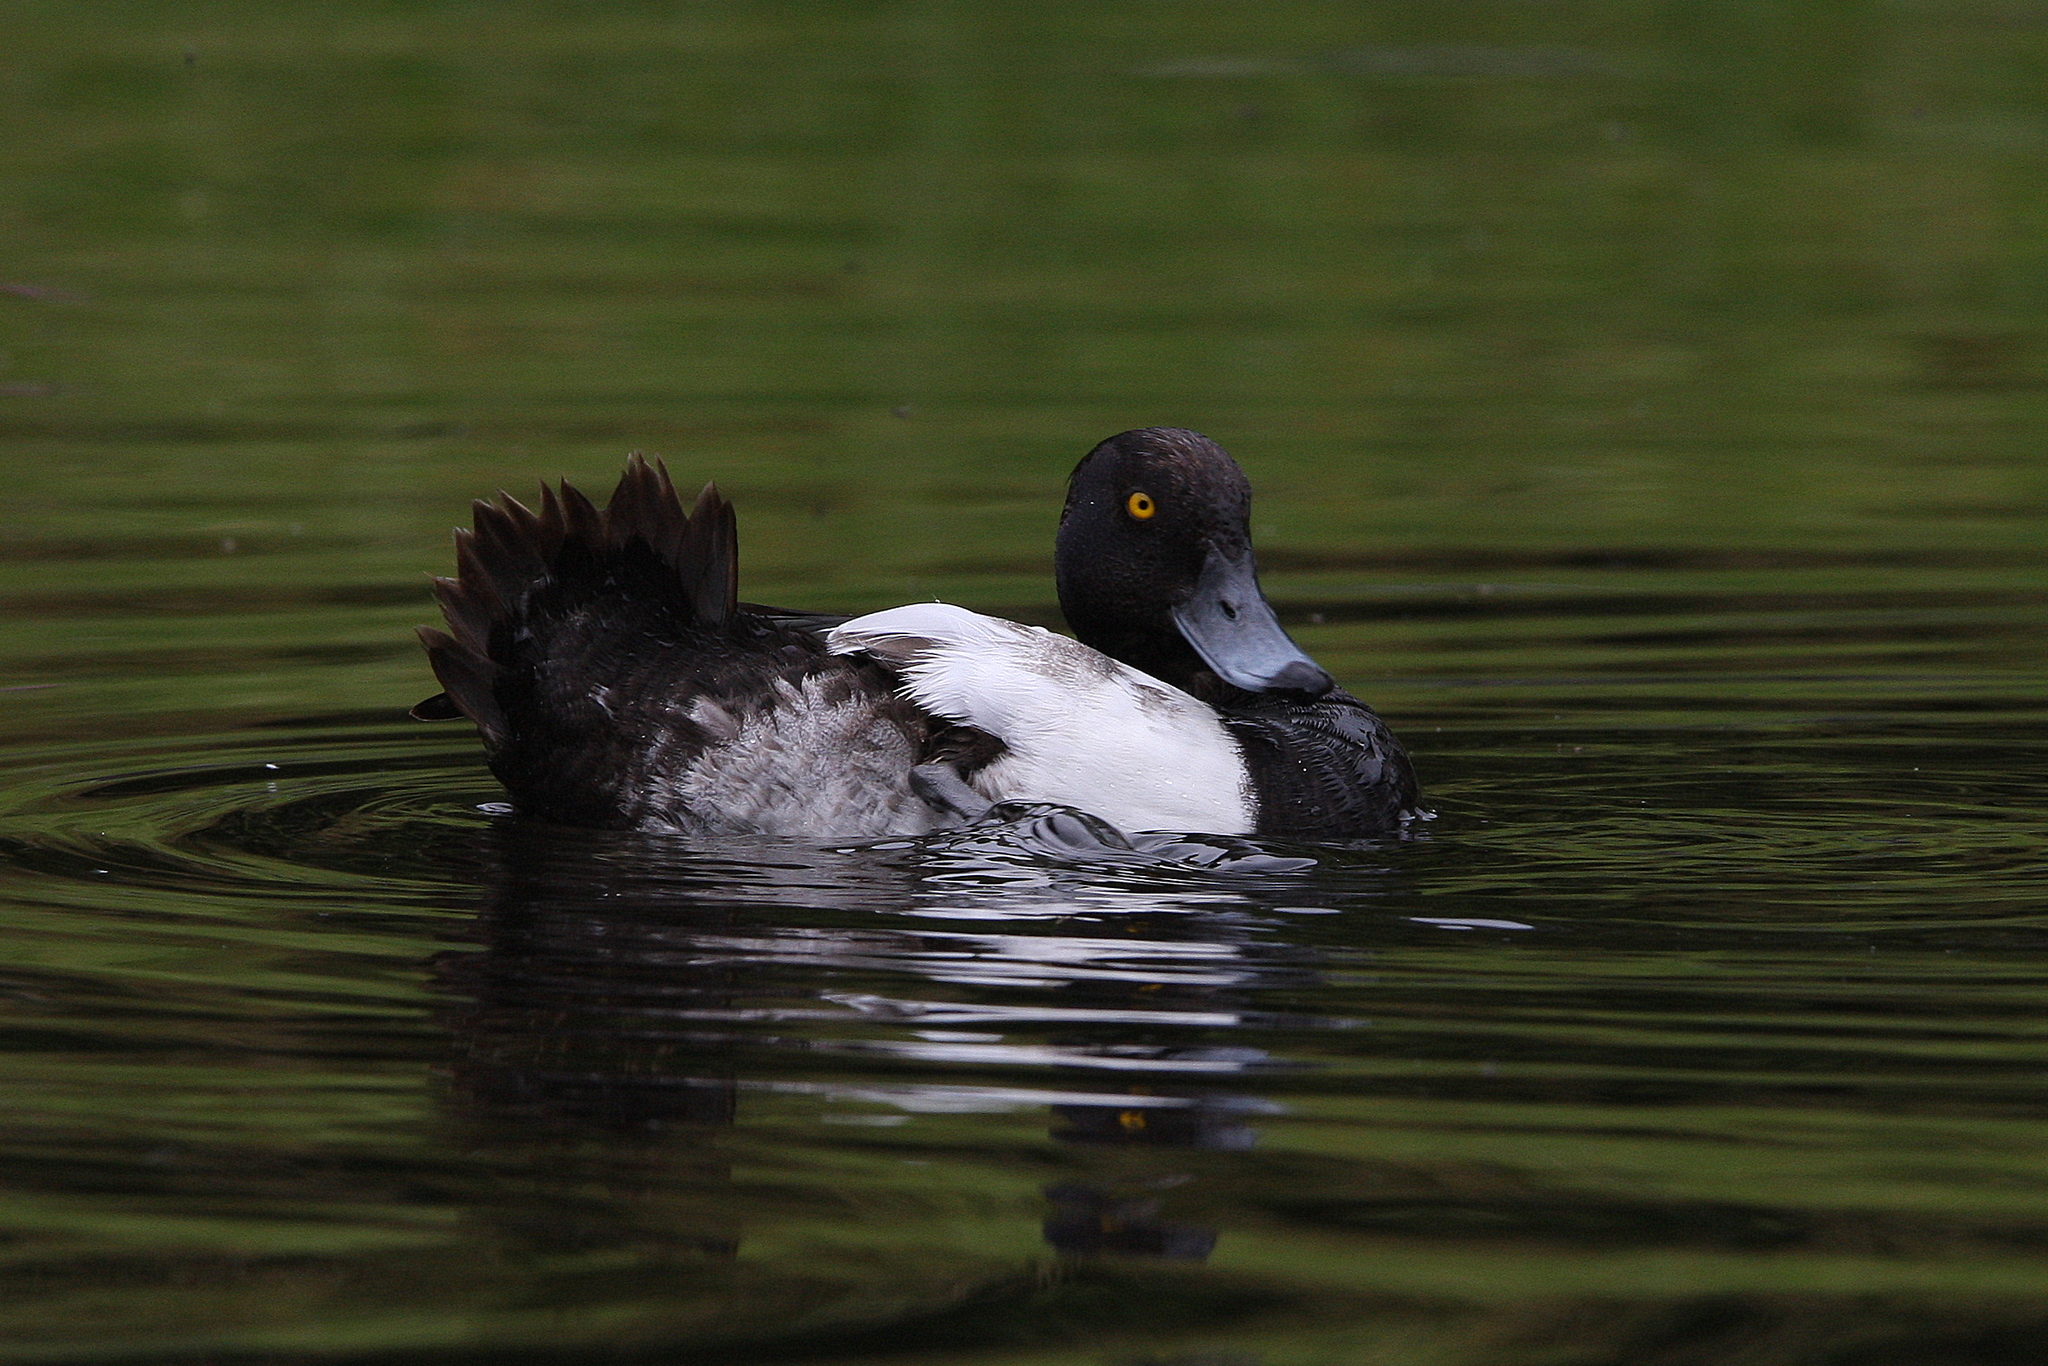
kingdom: Animalia
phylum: Chordata
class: Aves
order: Anseriformes
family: Anatidae
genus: Aythya
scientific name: Aythya fuligula
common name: Tufted duck
